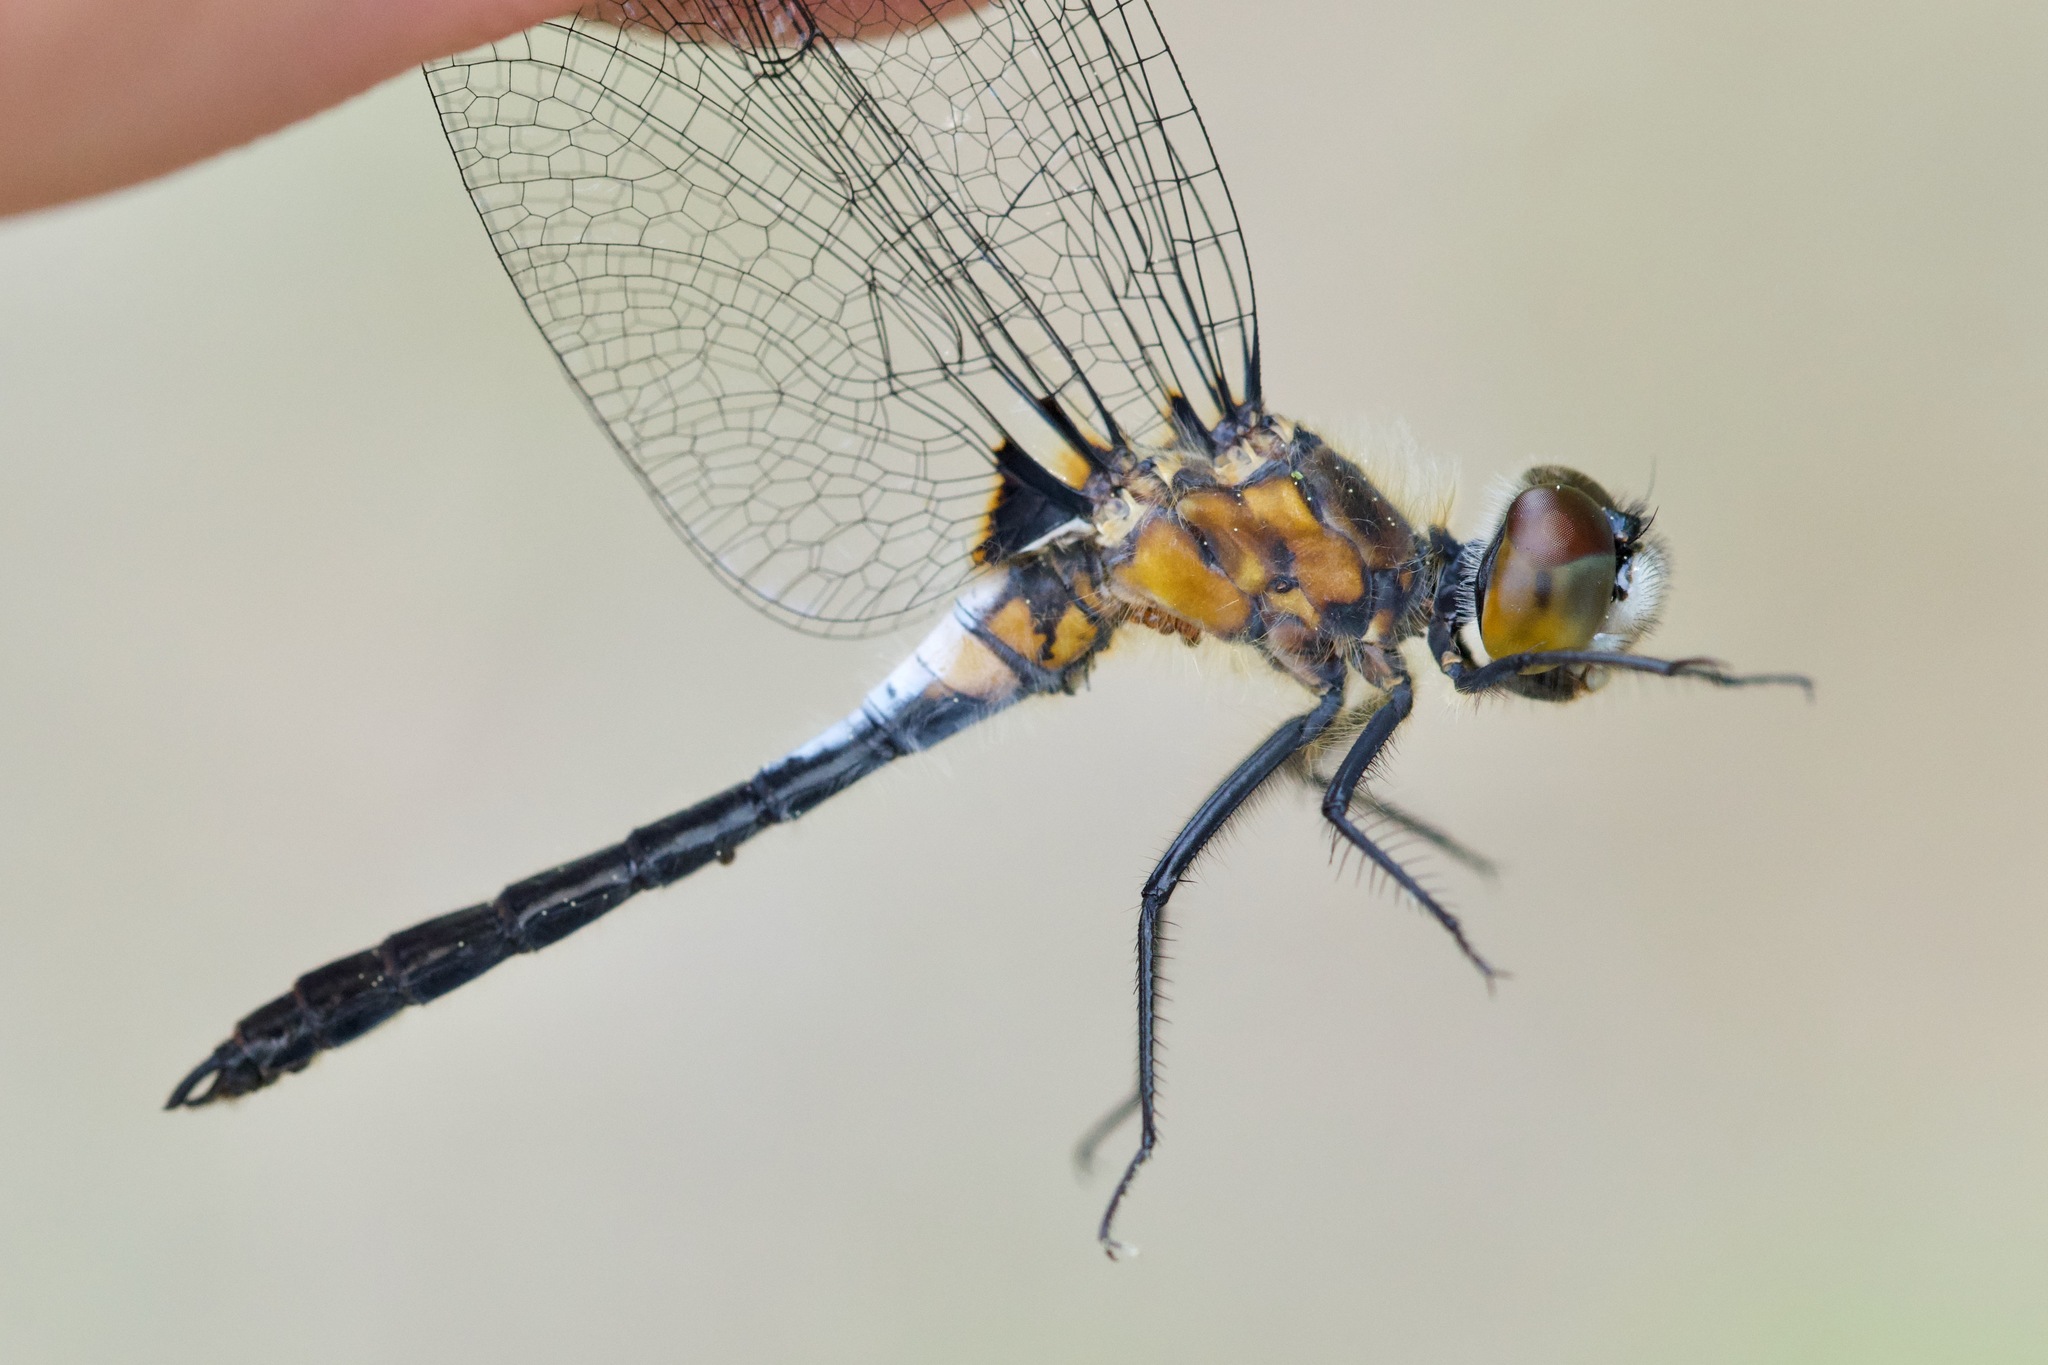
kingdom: Animalia
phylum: Arthropoda
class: Insecta
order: Odonata
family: Libellulidae
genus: Leucorrhinia
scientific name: Leucorrhinia frigida
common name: Frosted whiteface
